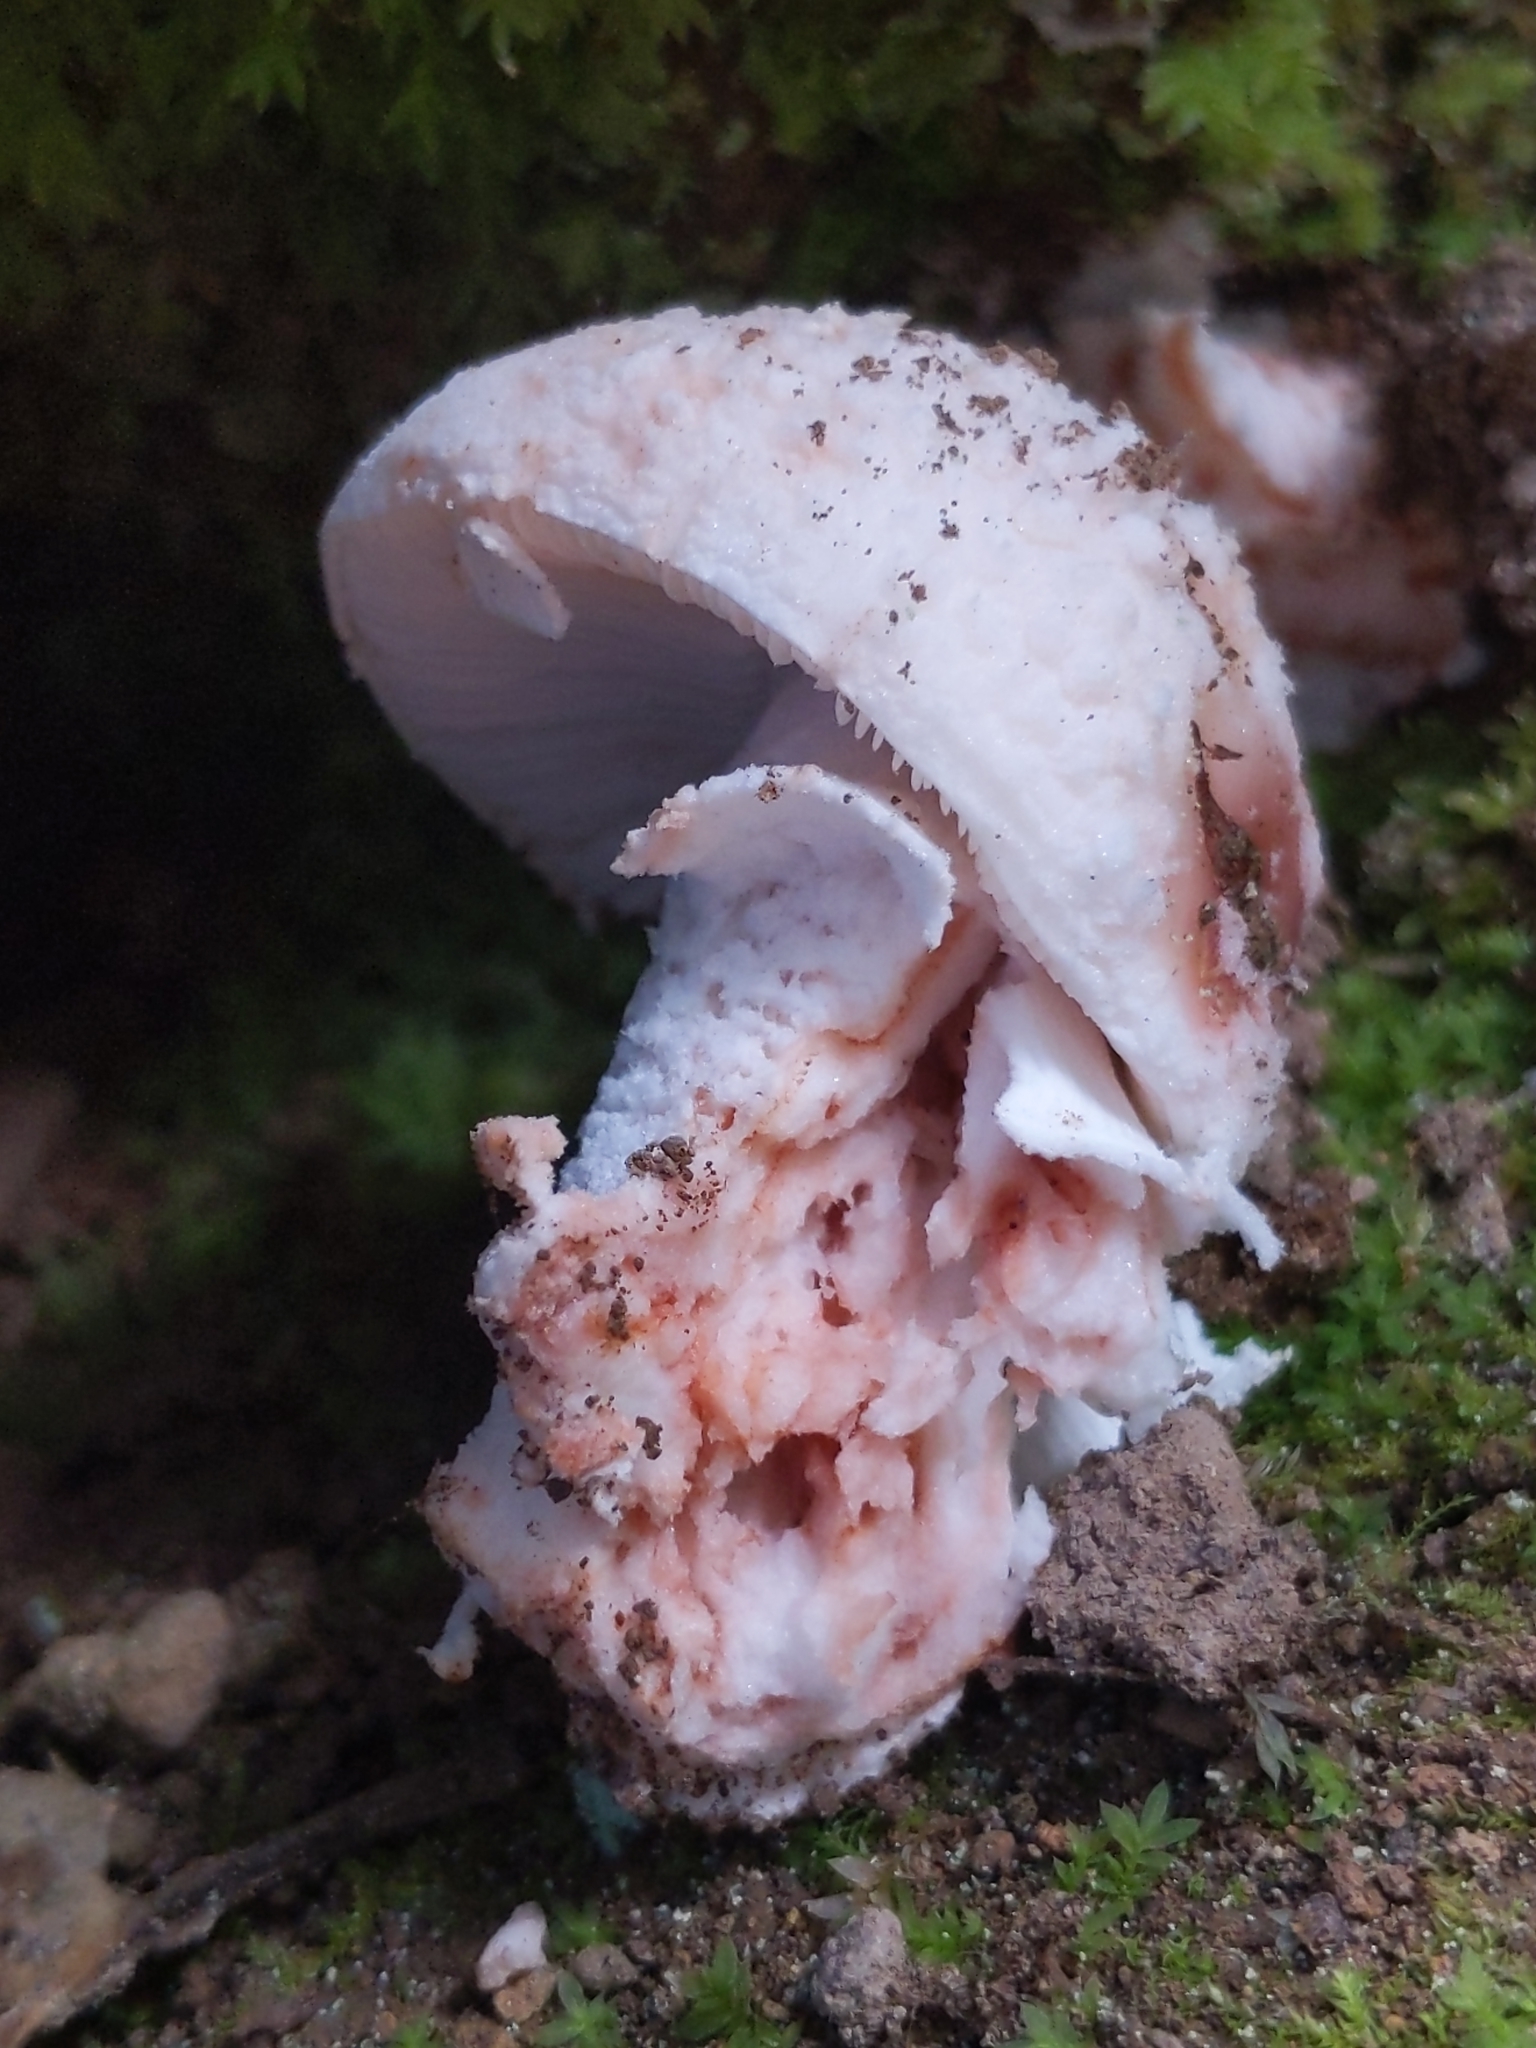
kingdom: Fungi
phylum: Basidiomycota
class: Agaricomycetes
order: Agaricales
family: Amanitaceae
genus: Amanita
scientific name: Amanita novinupta
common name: Blushing bride
